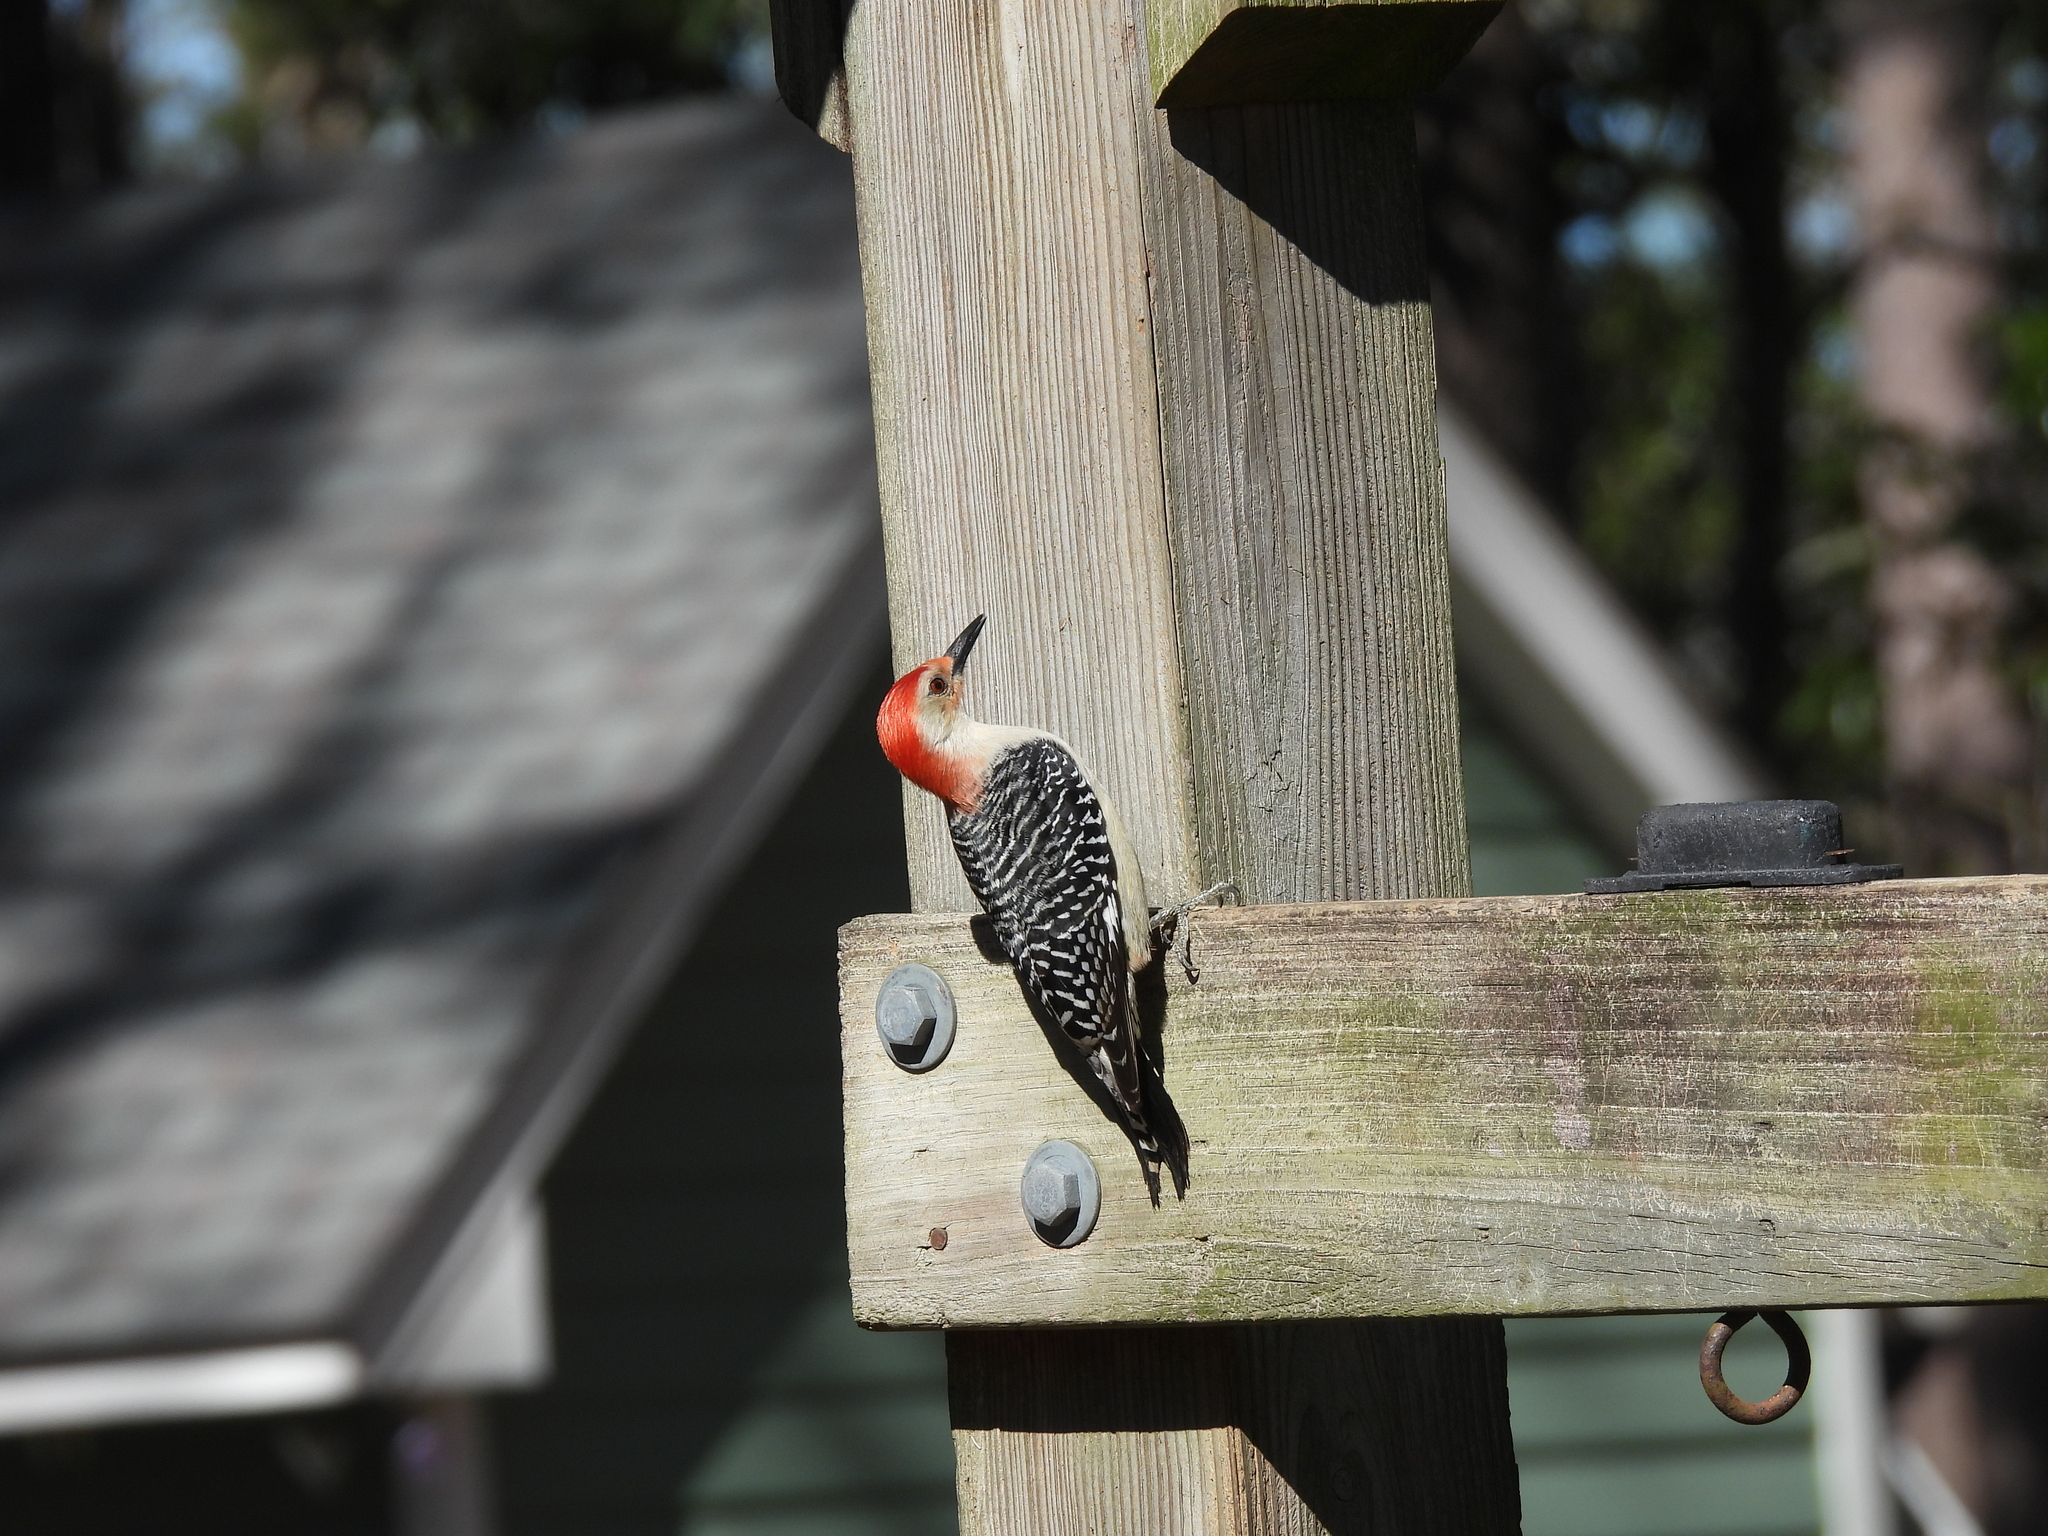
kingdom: Animalia
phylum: Chordata
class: Aves
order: Piciformes
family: Picidae
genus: Melanerpes
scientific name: Melanerpes carolinus
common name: Red-bellied woodpecker
